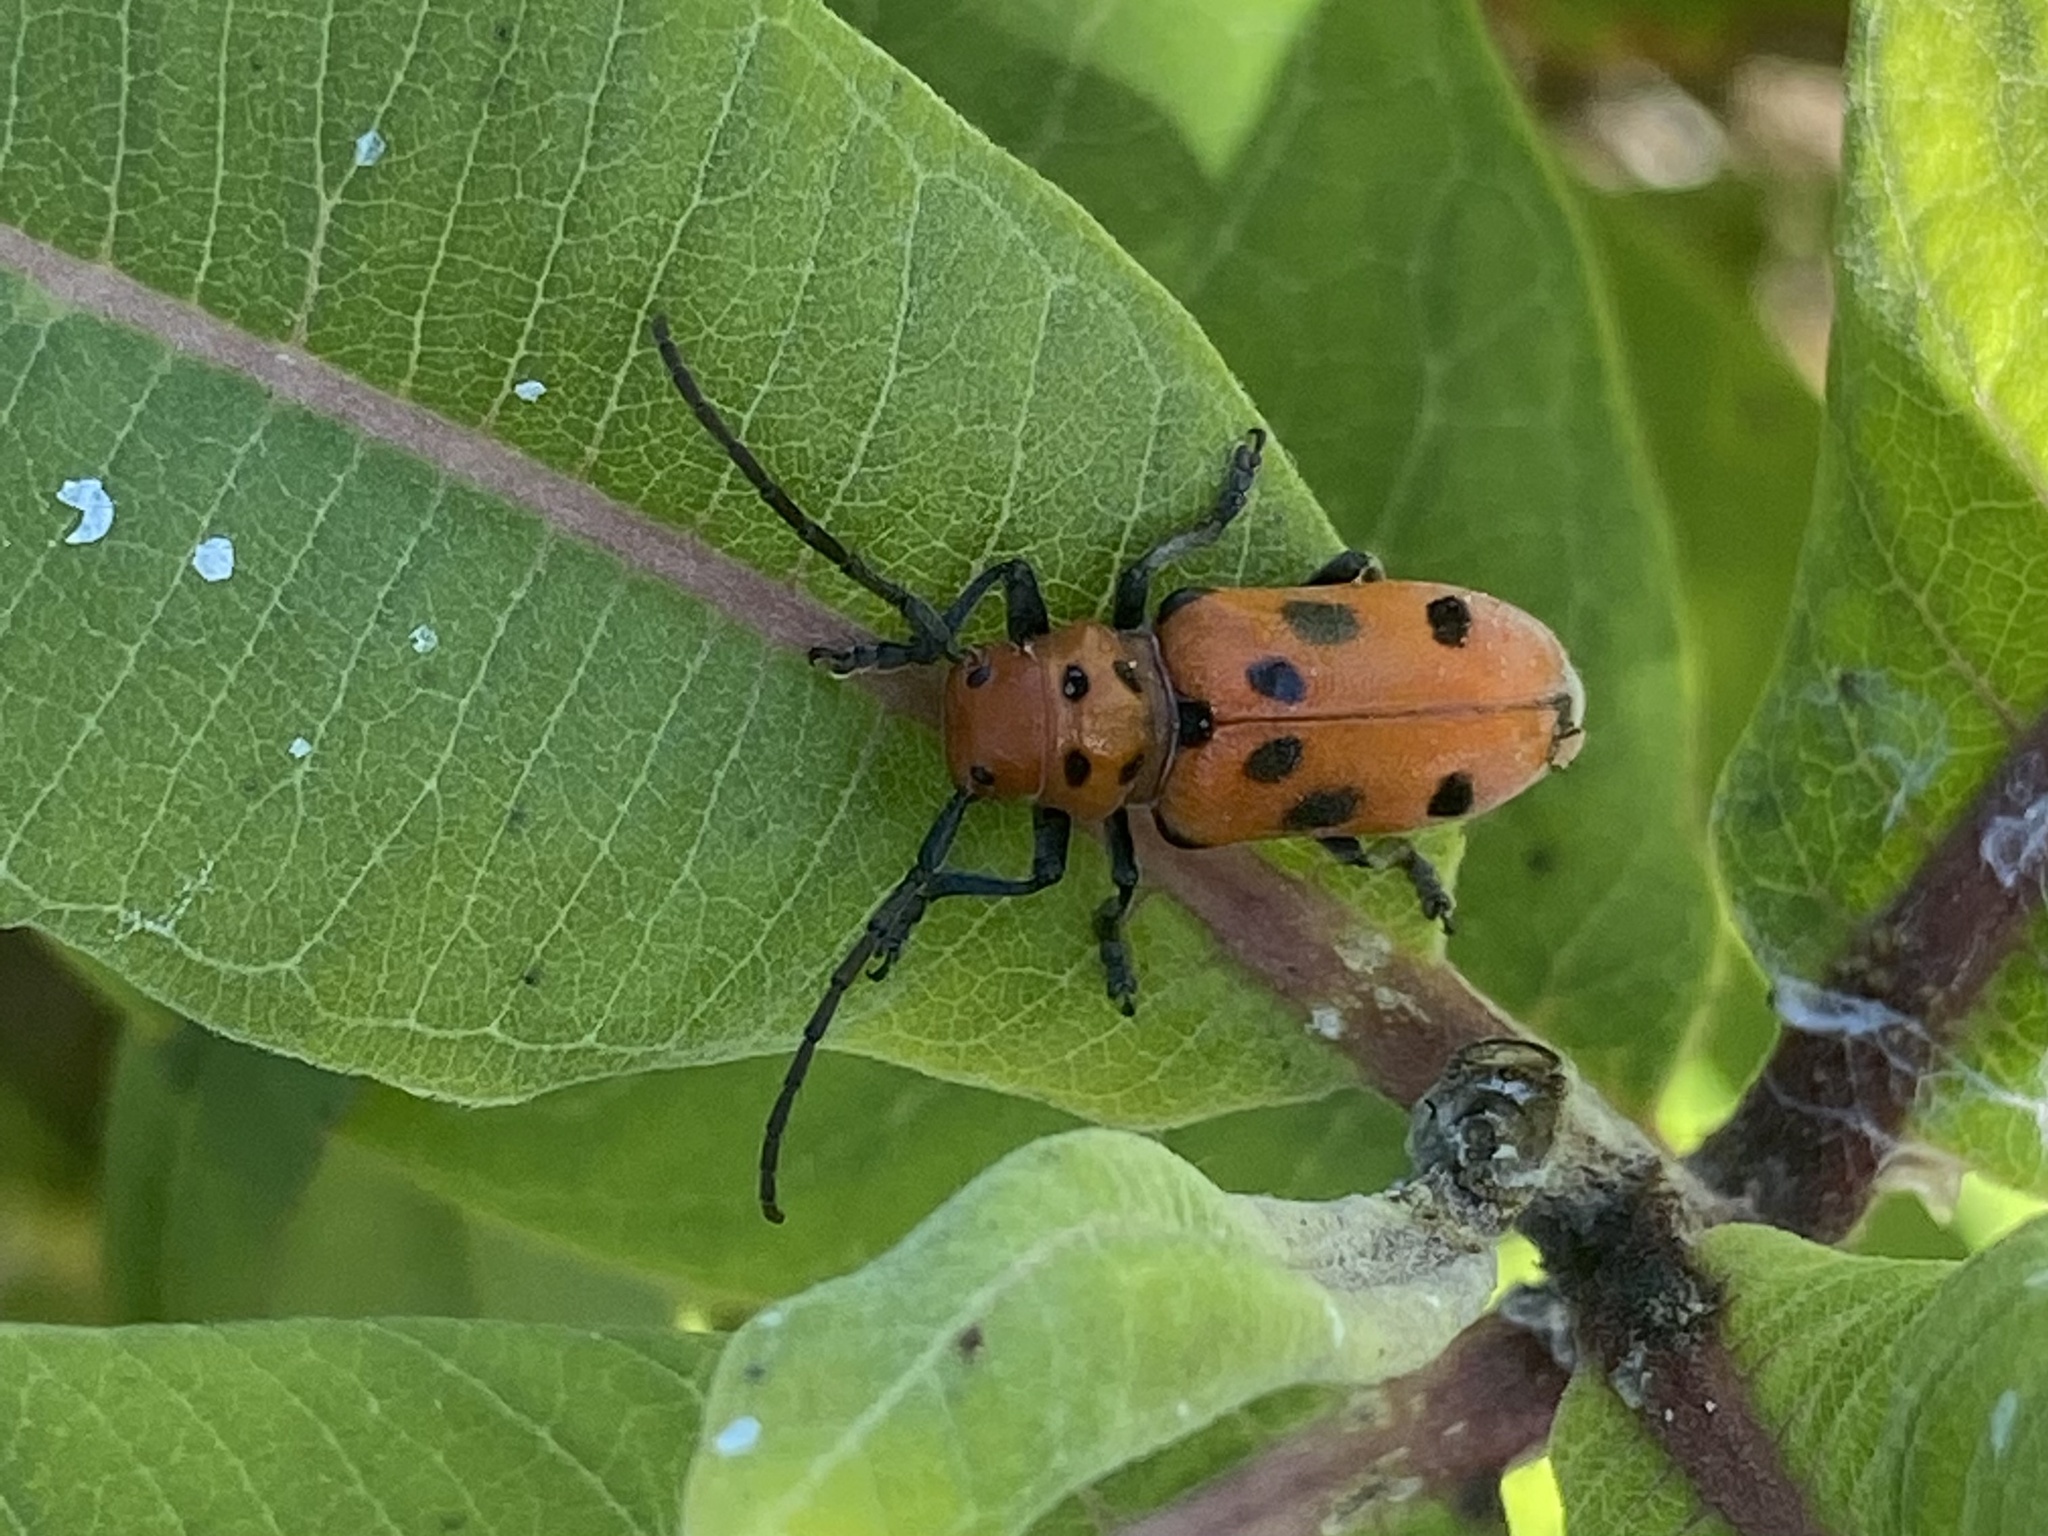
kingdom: Animalia
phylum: Arthropoda
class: Insecta
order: Coleoptera
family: Cerambycidae
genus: Tetraopes
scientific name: Tetraopes tetrophthalmus
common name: Red milkweed beetle
